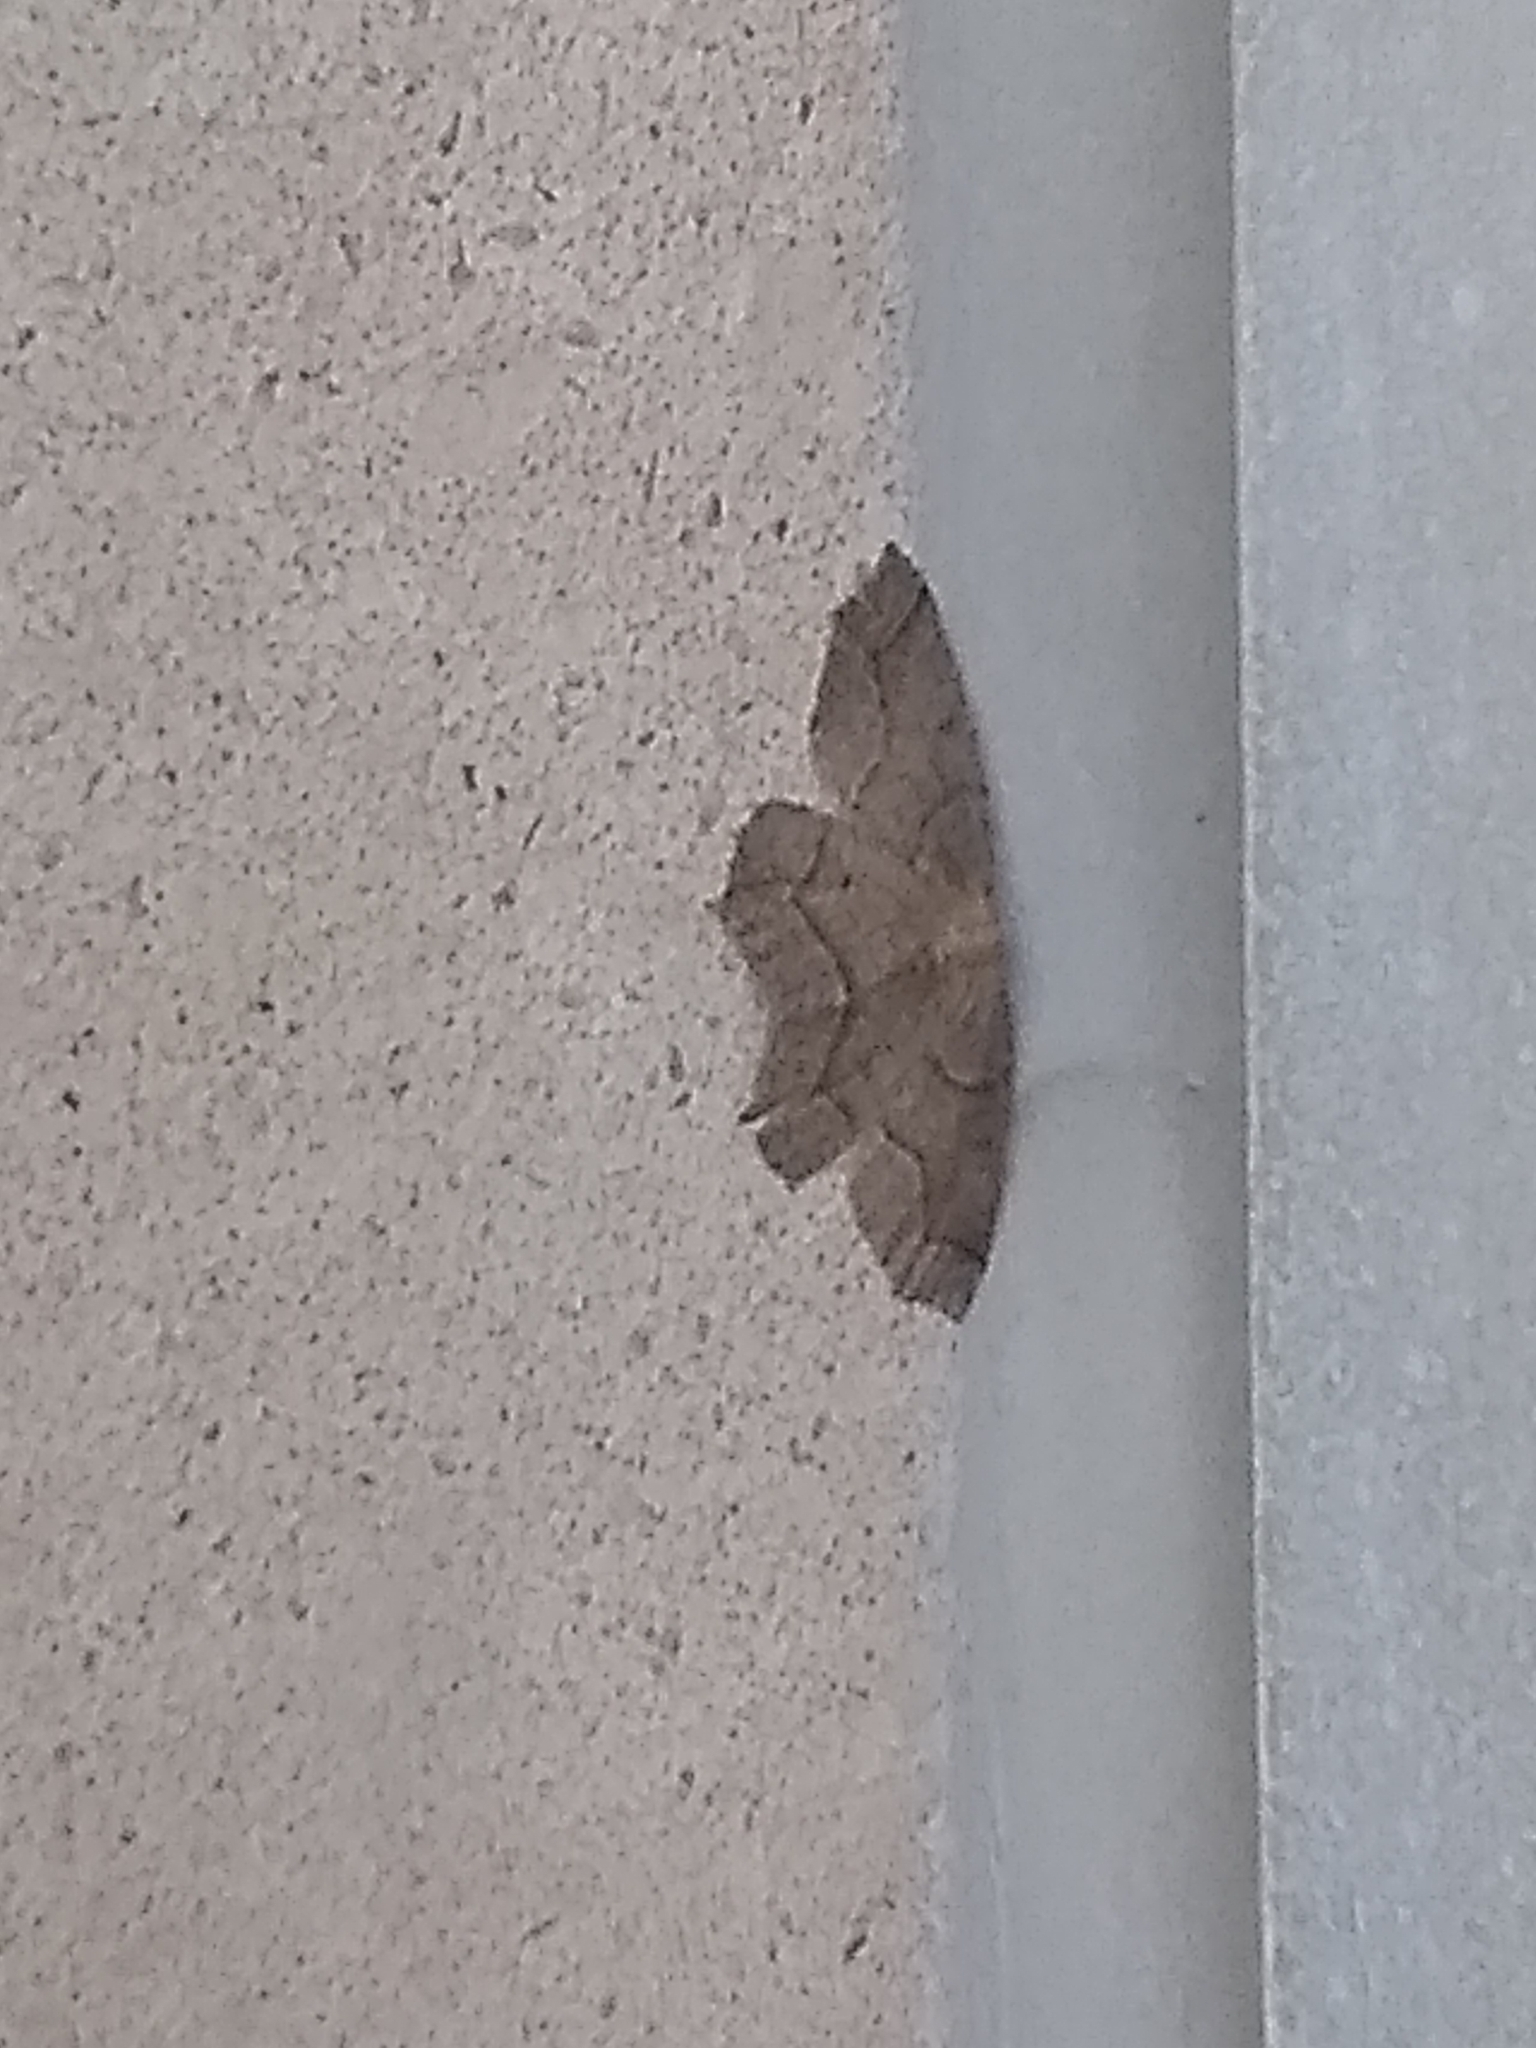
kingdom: Animalia
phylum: Arthropoda
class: Insecta
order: Lepidoptera
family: Geometridae
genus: Lambdina
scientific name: Lambdina fiscellaria
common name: Hemlock looper
